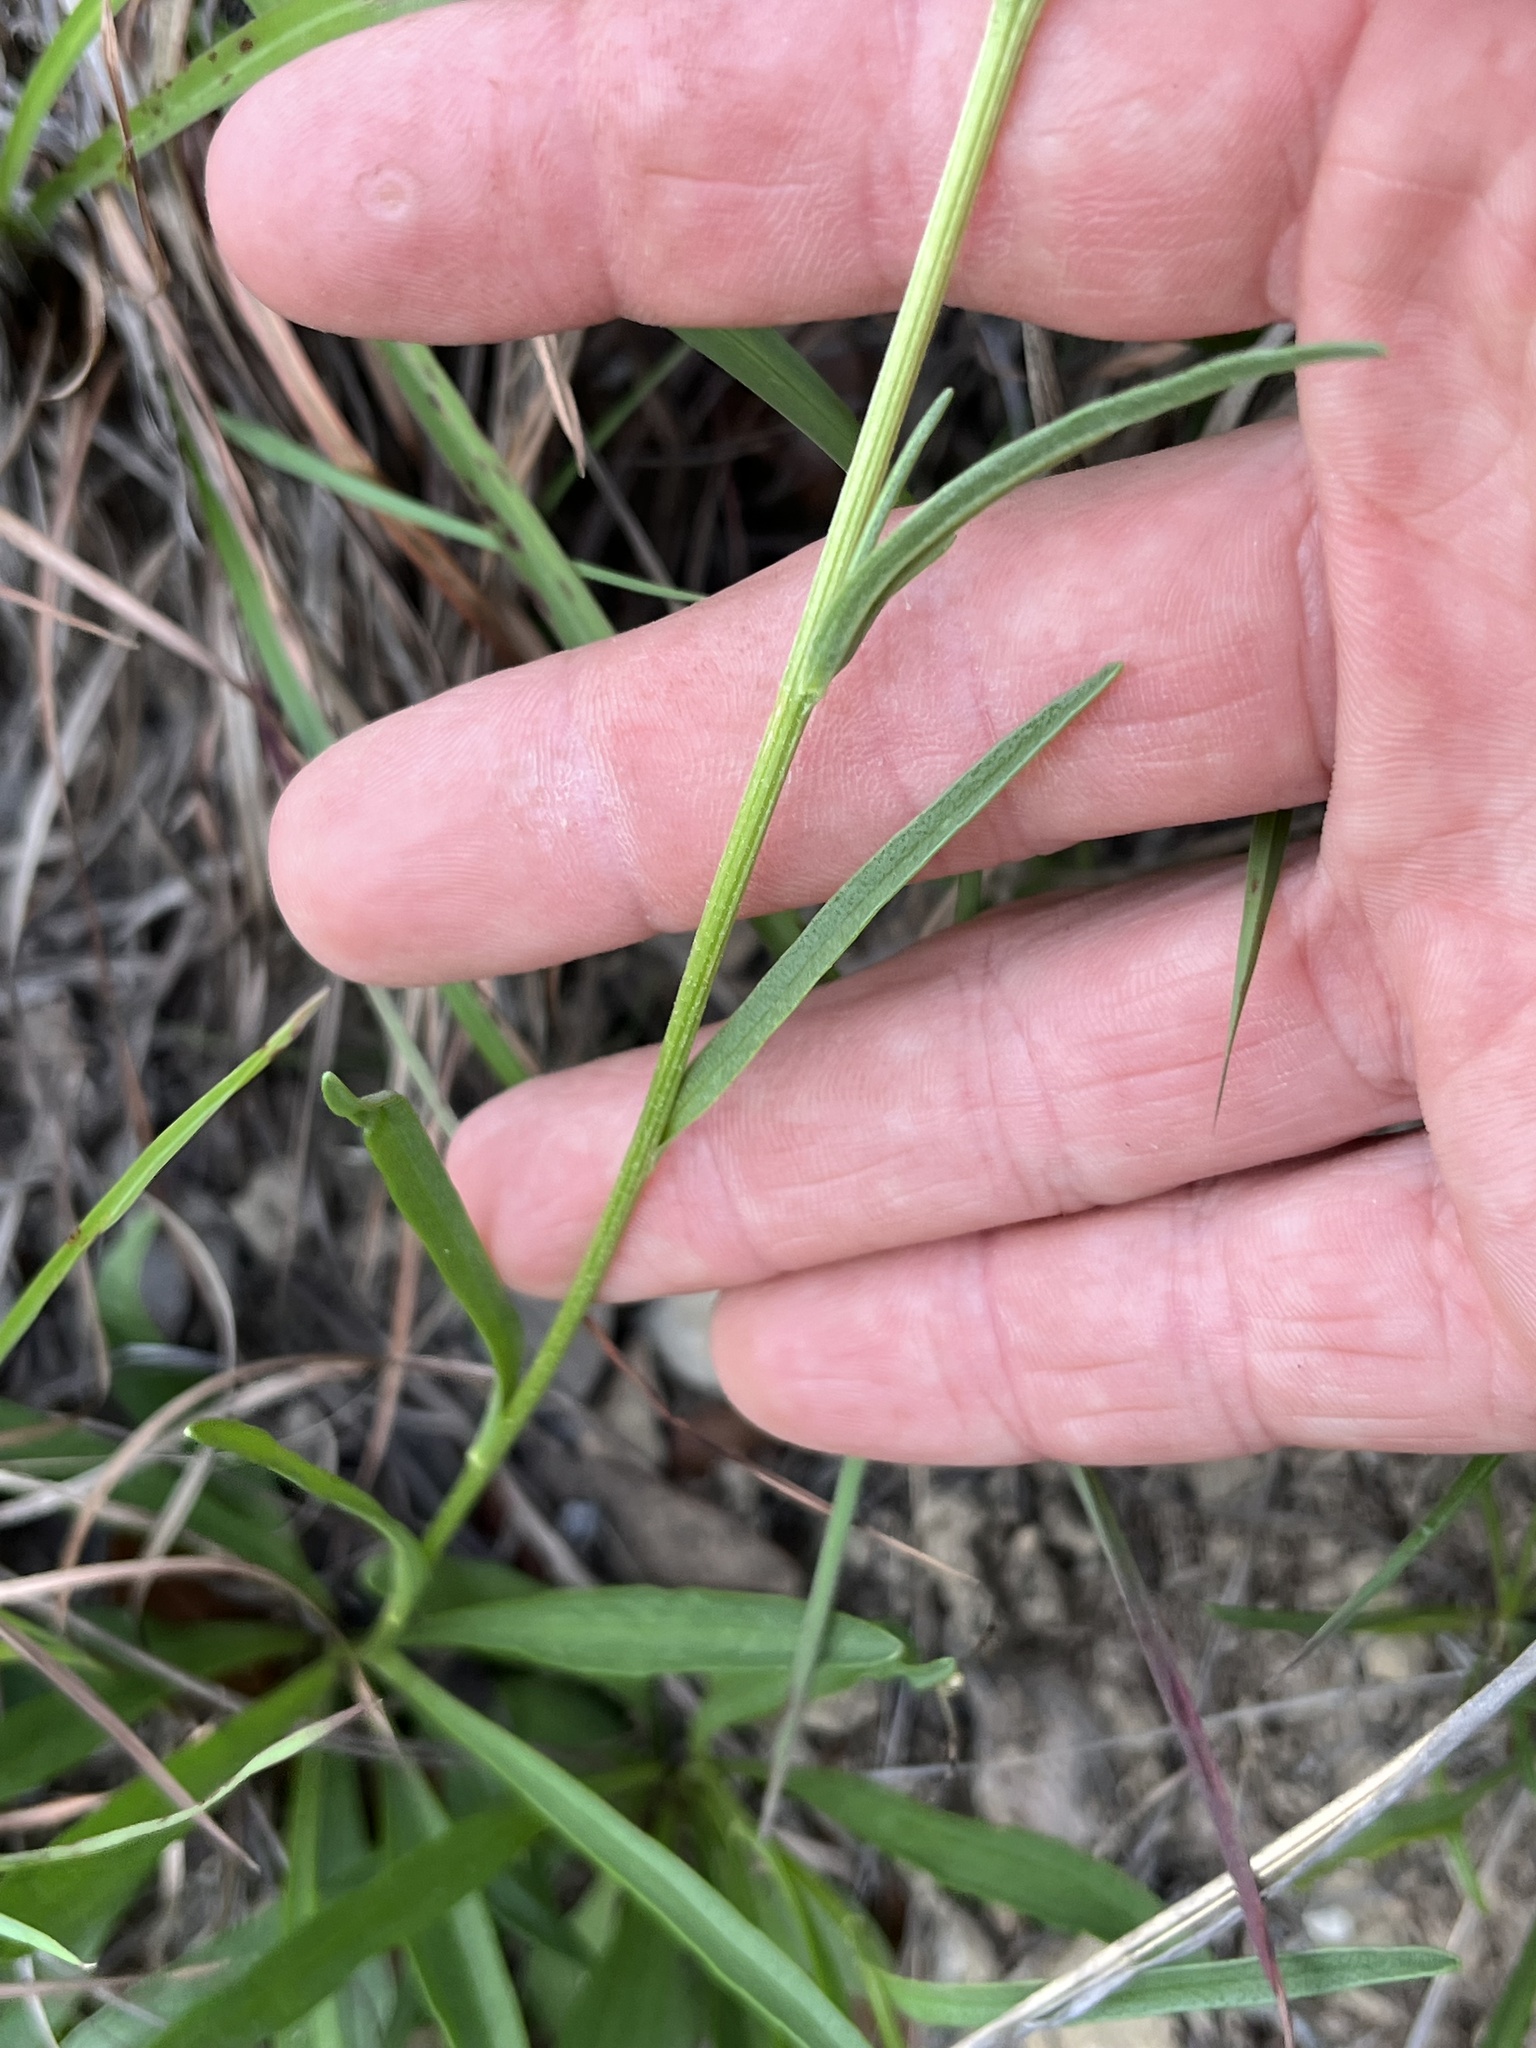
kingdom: Plantae
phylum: Tracheophyta
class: Magnoliopsida
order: Asterales
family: Asteraceae
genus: Marshallia
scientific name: Marshallia caespitosa
